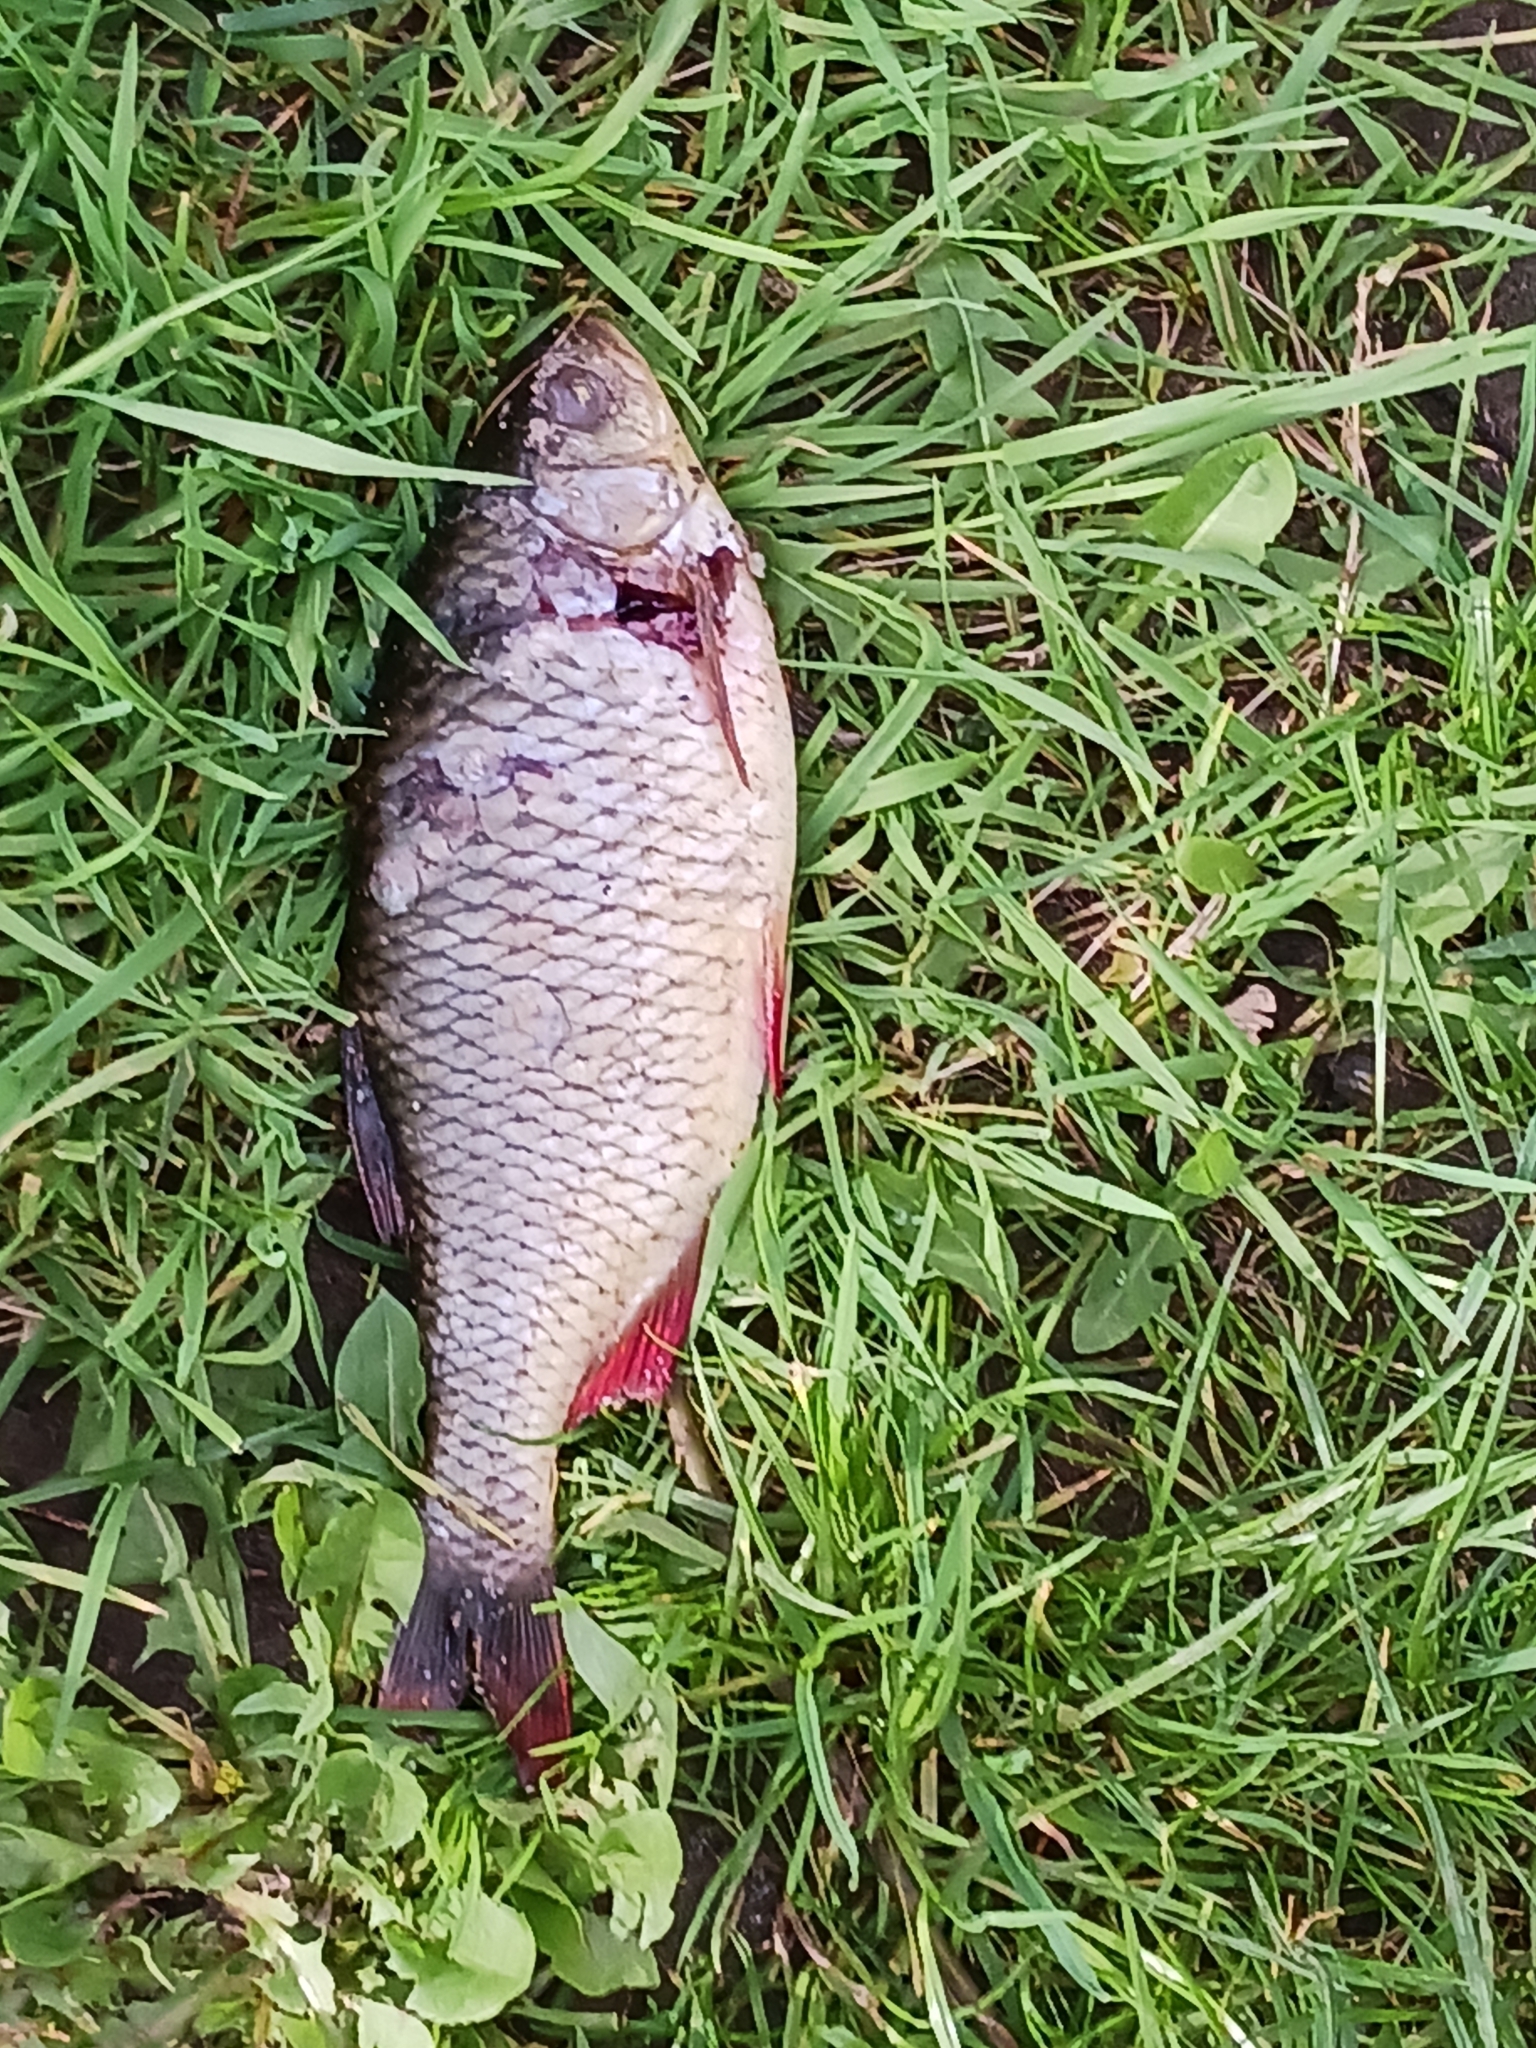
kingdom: Animalia
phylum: Chordata
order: Cypriniformes
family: Cyprinidae
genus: Scardinius
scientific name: Scardinius erythrophthalmus
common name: Rudd
